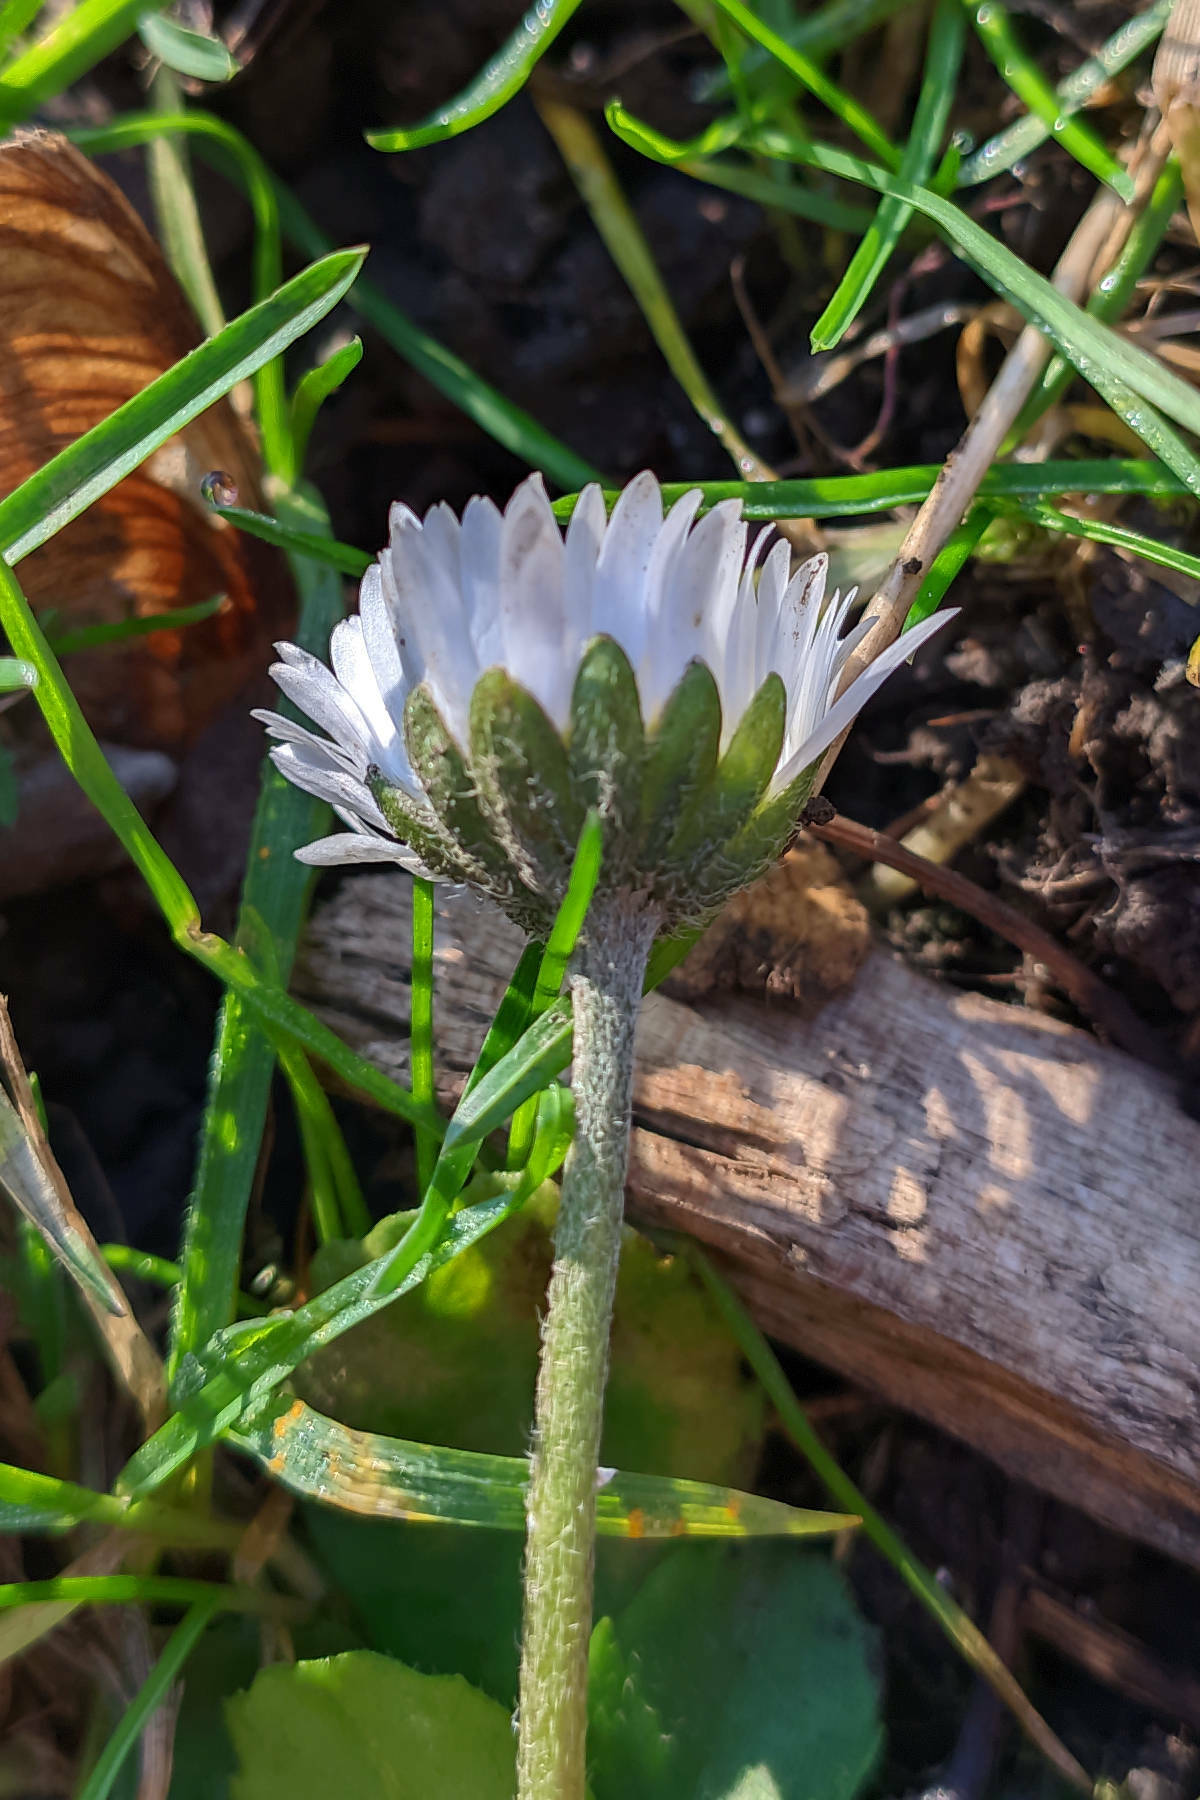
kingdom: Plantae
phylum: Tracheophyta
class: Magnoliopsida
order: Asterales
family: Asteraceae
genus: Bellis
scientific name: Bellis perennis
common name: Lawndaisy
